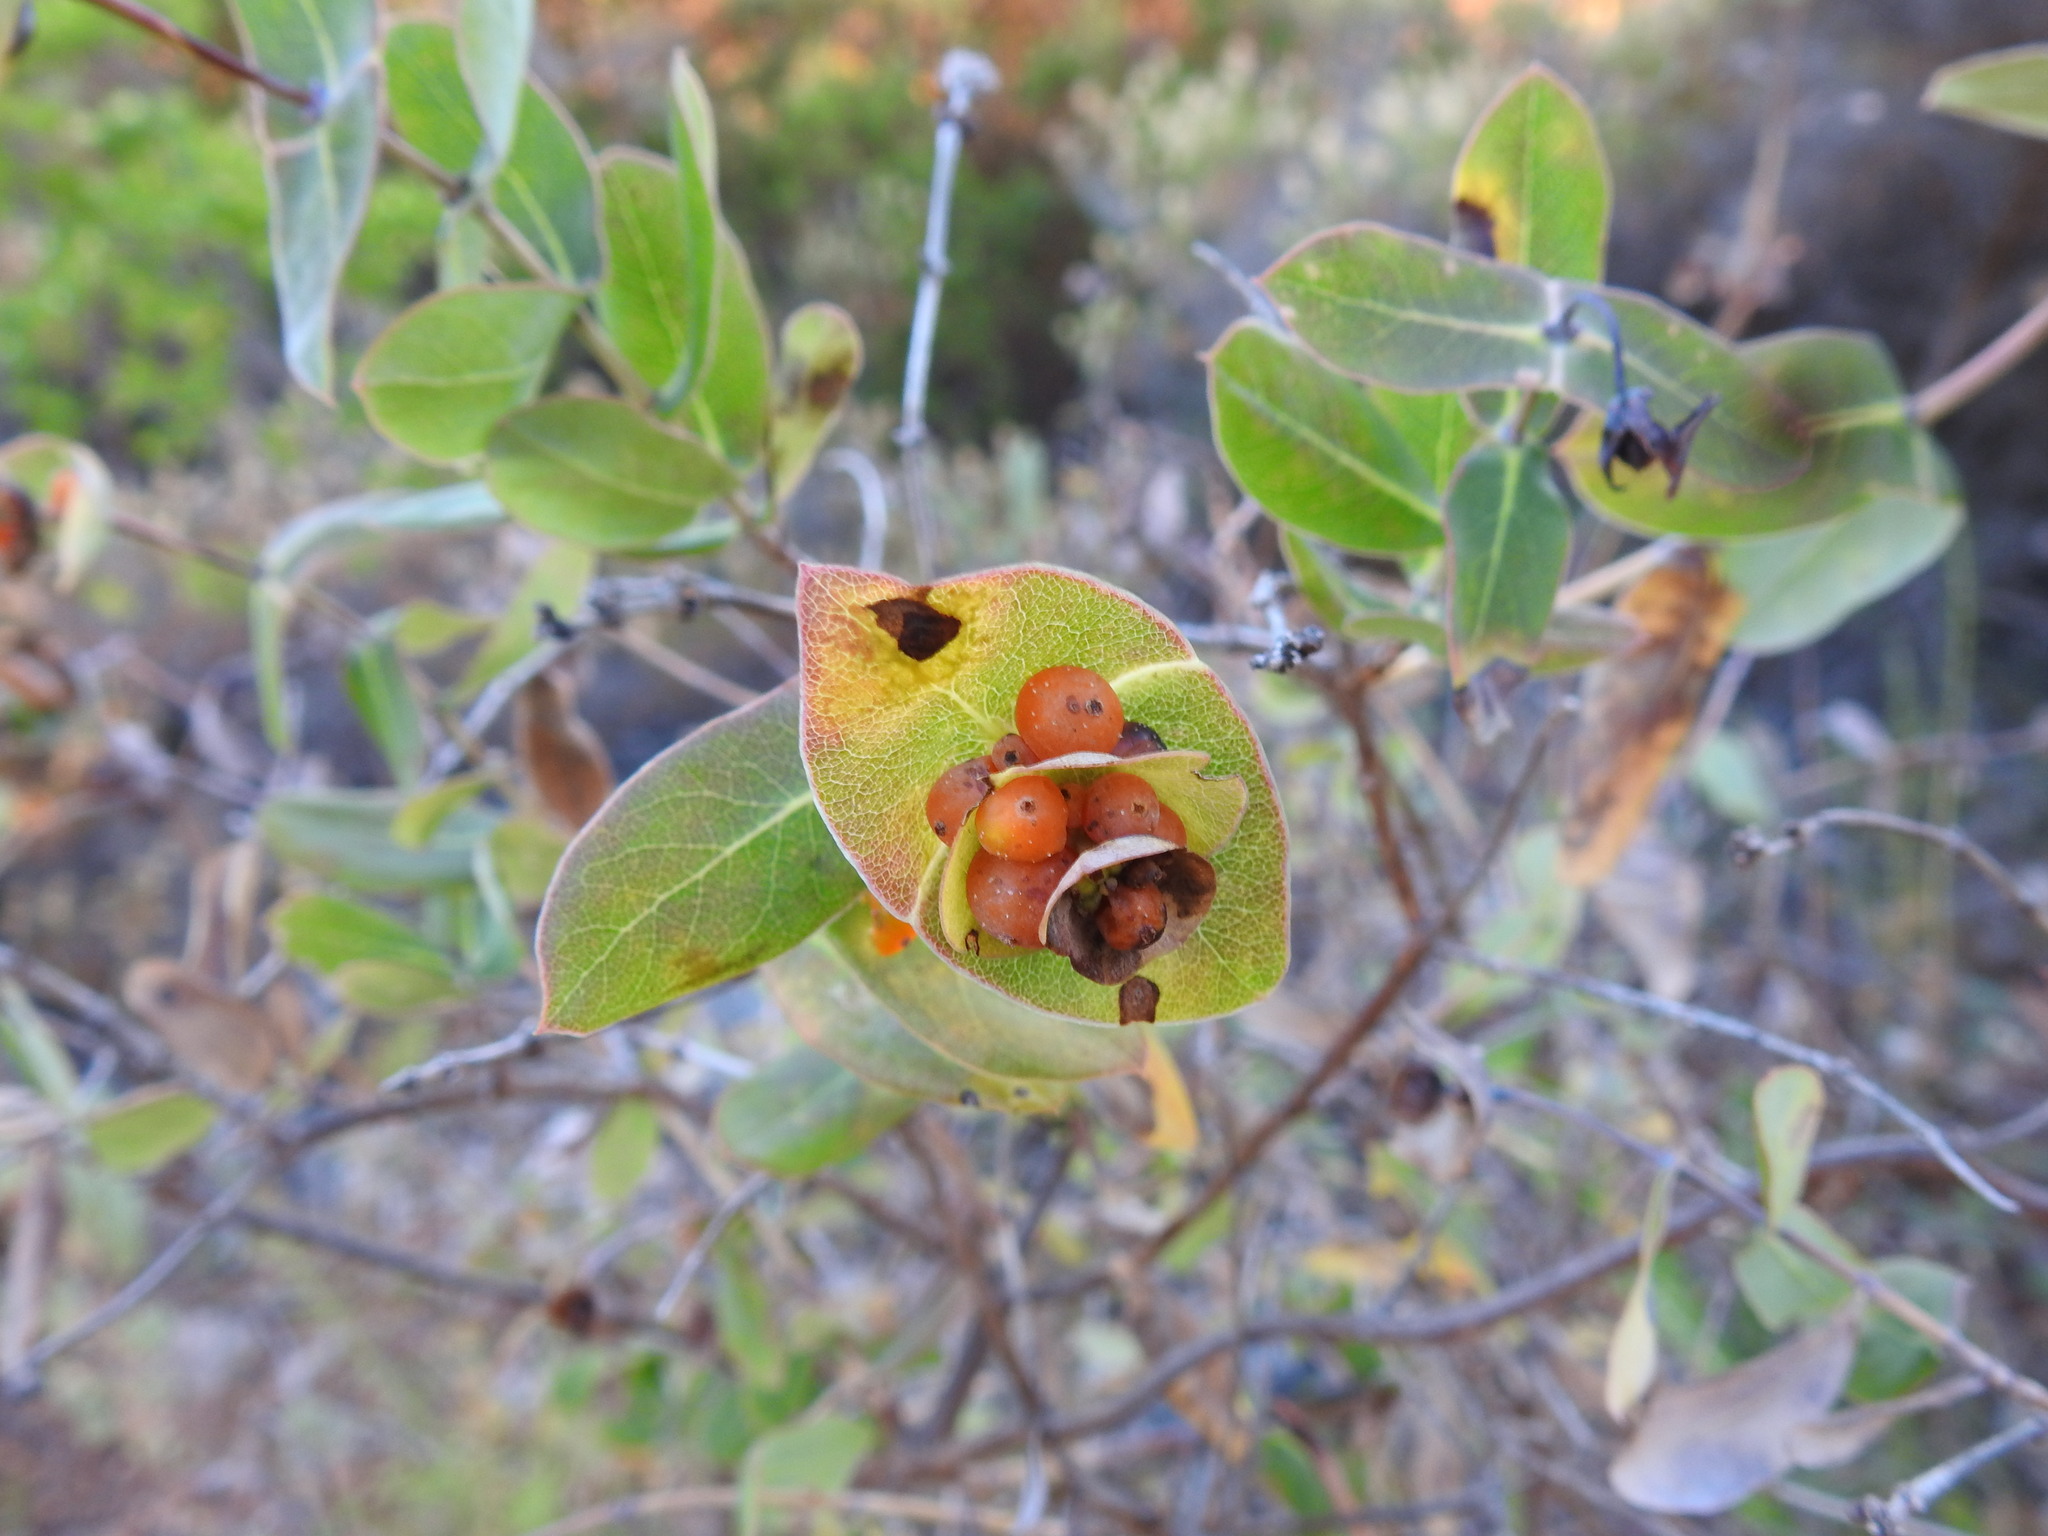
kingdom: Plantae
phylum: Tracheophyta
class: Magnoliopsida
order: Dipsacales
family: Caprifoliaceae
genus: Lonicera
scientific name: Lonicera implexa
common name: Minorca honeysuckle
